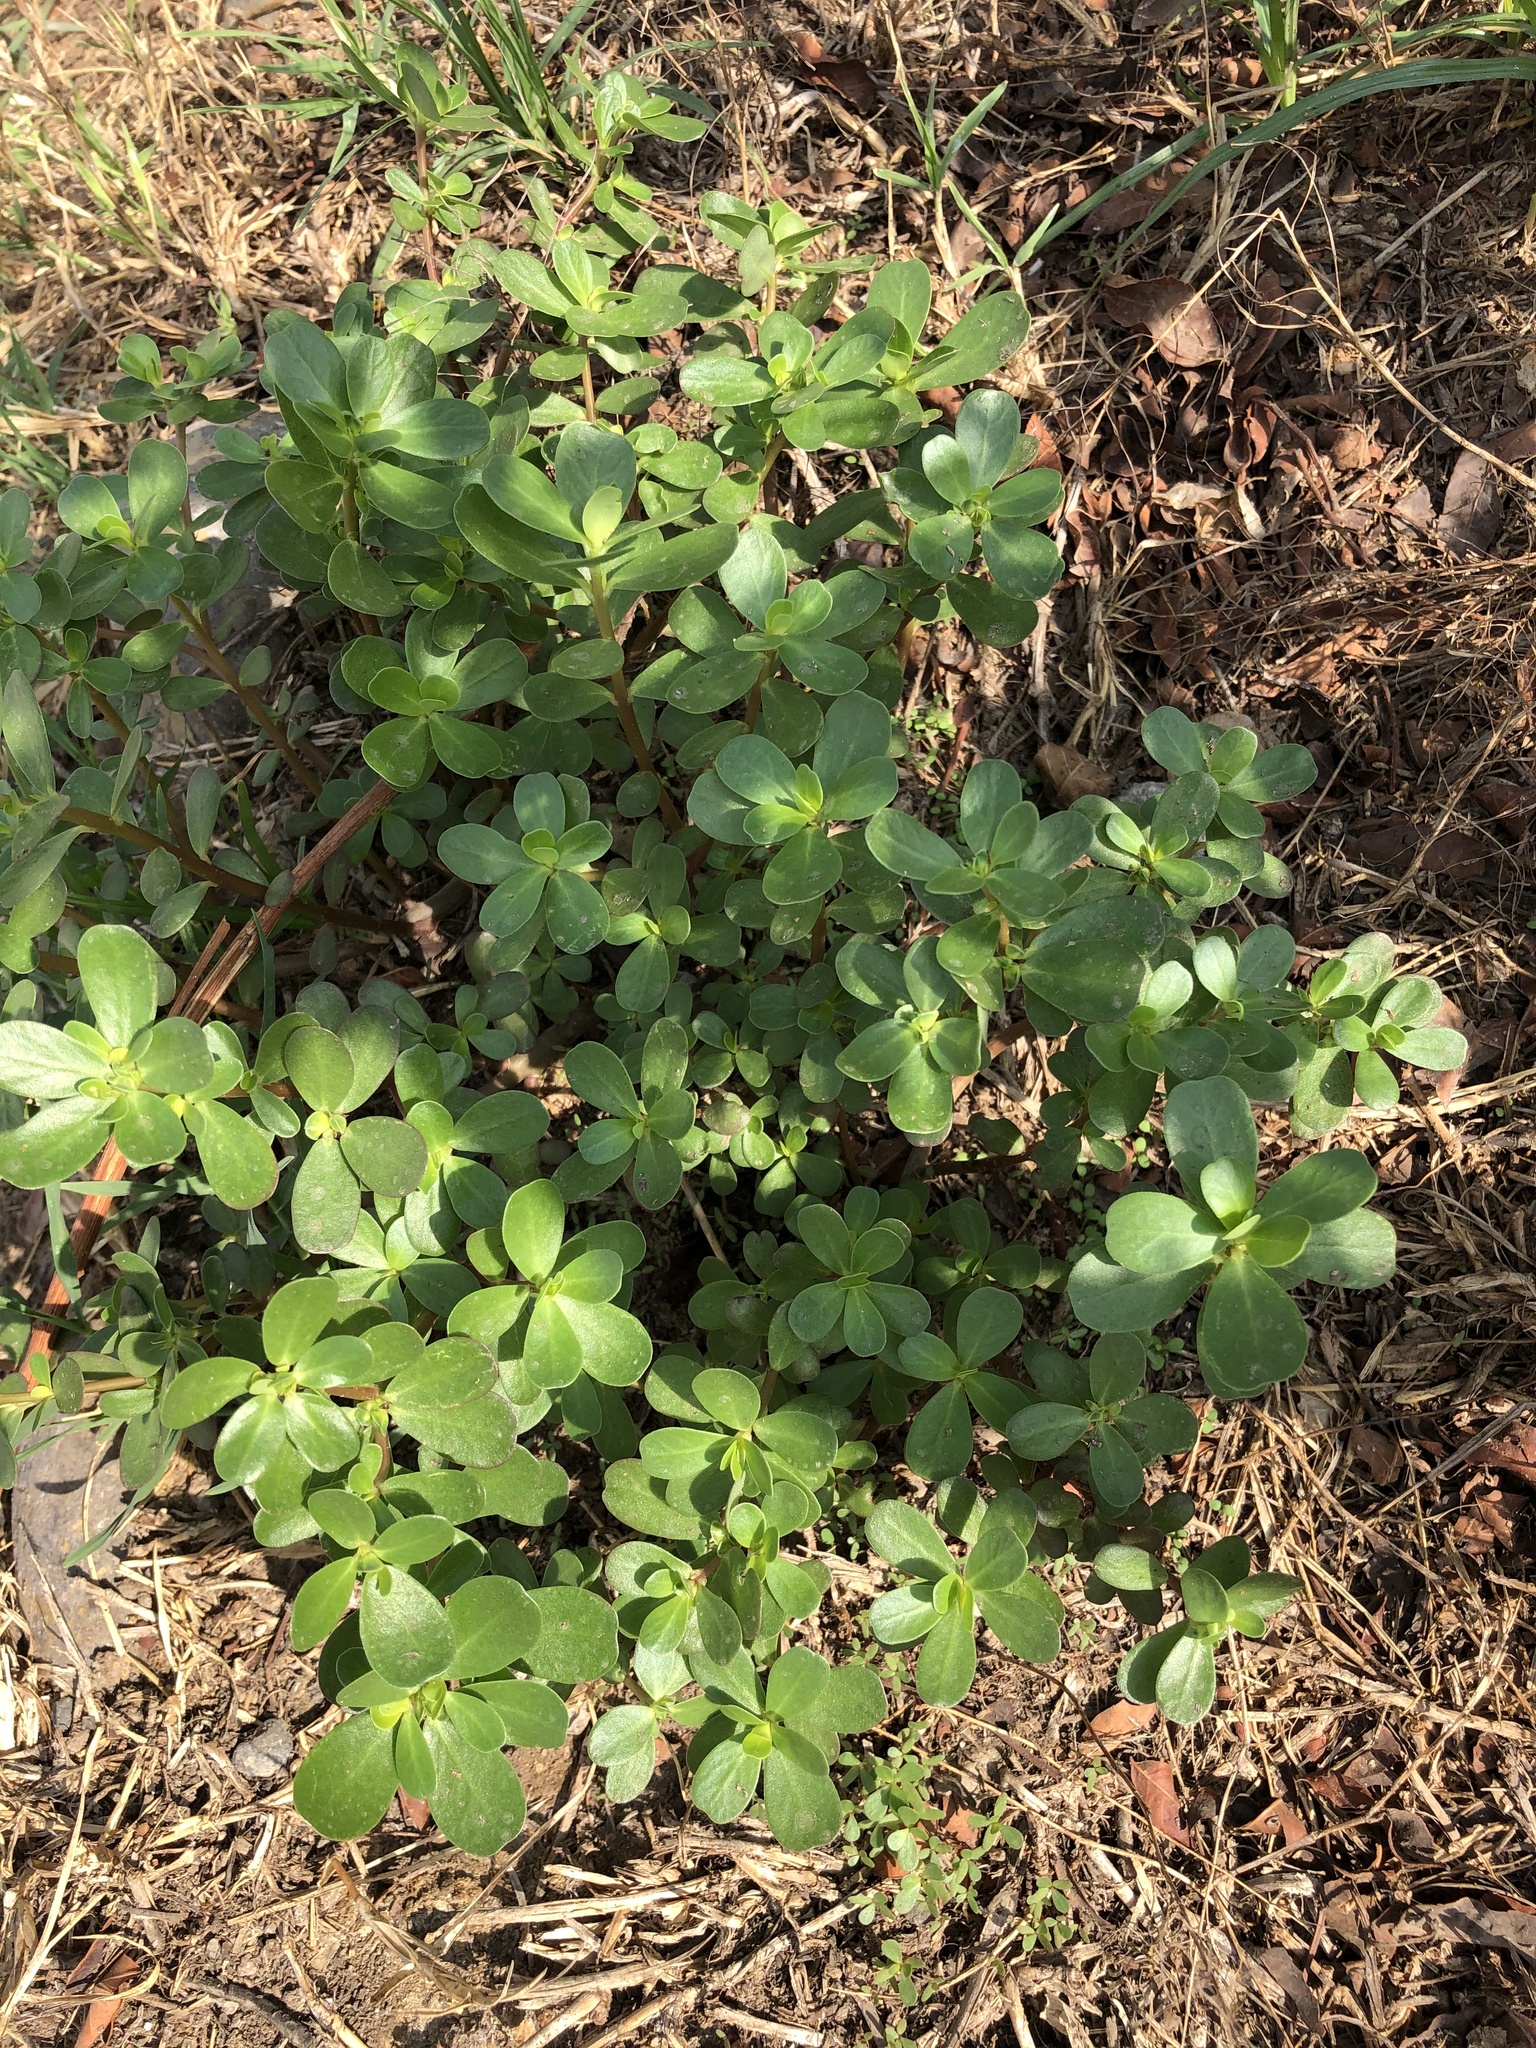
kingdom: Plantae
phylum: Tracheophyta
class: Magnoliopsida
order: Caryophyllales
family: Portulacaceae
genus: Portulaca
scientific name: Portulaca oleracea
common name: Common purslane
